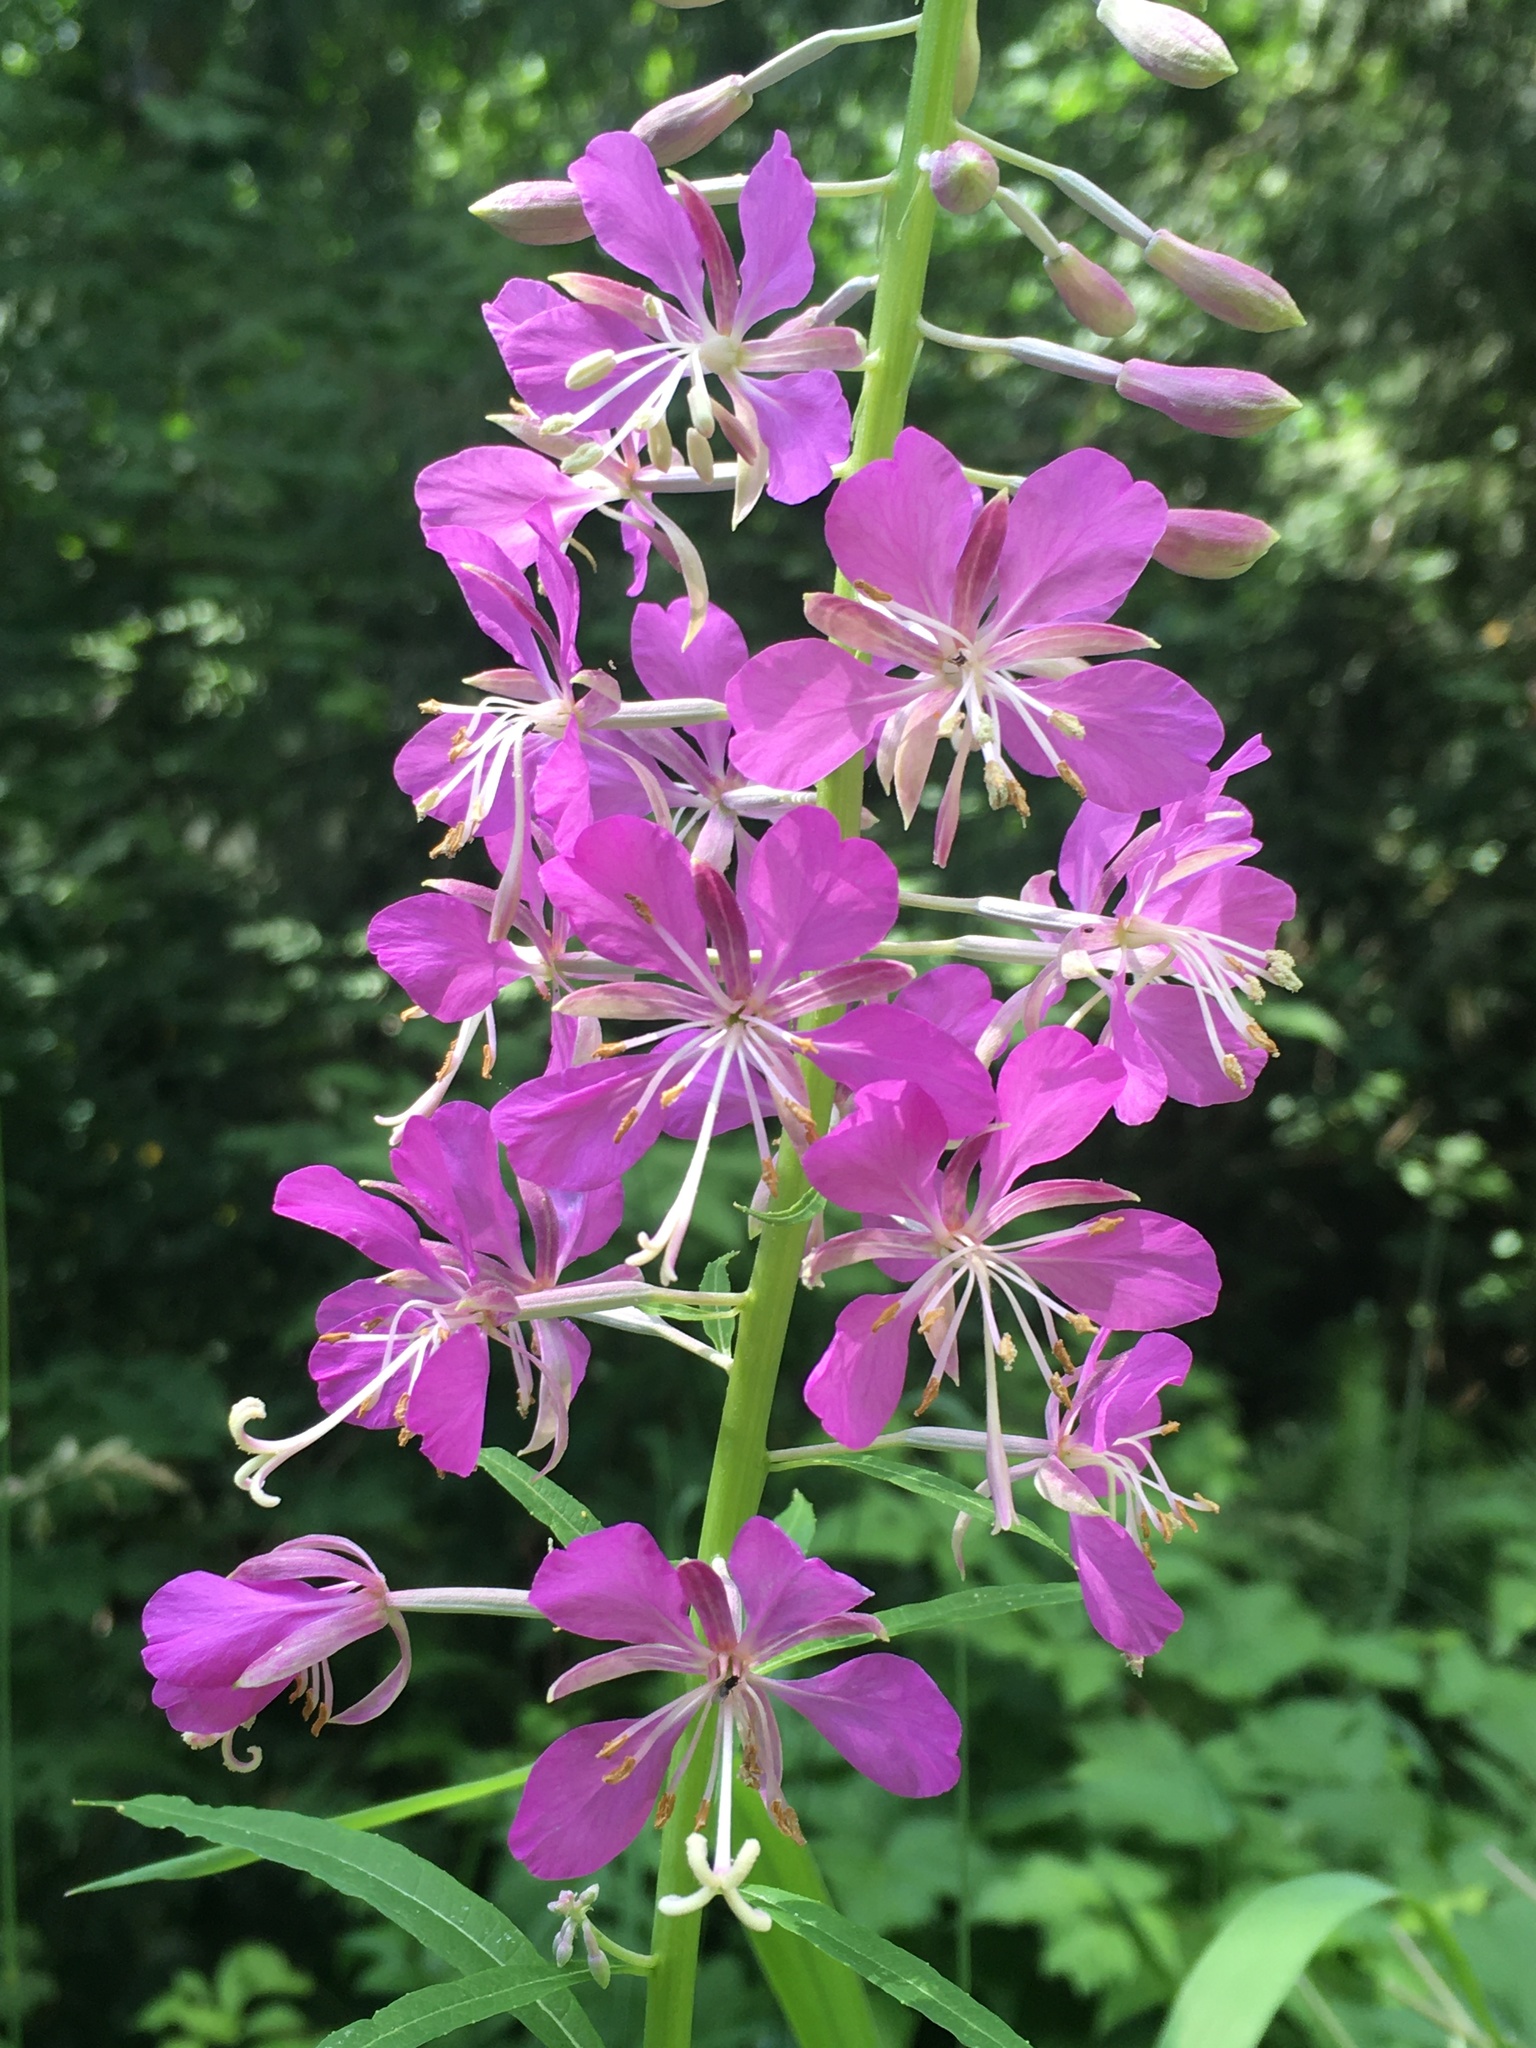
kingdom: Plantae
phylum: Tracheophyta
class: Magnoliopsida
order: Myrtales
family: Onagraceae
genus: Chamaenerion
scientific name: Chamaenerion angustifolium
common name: Fireweed
